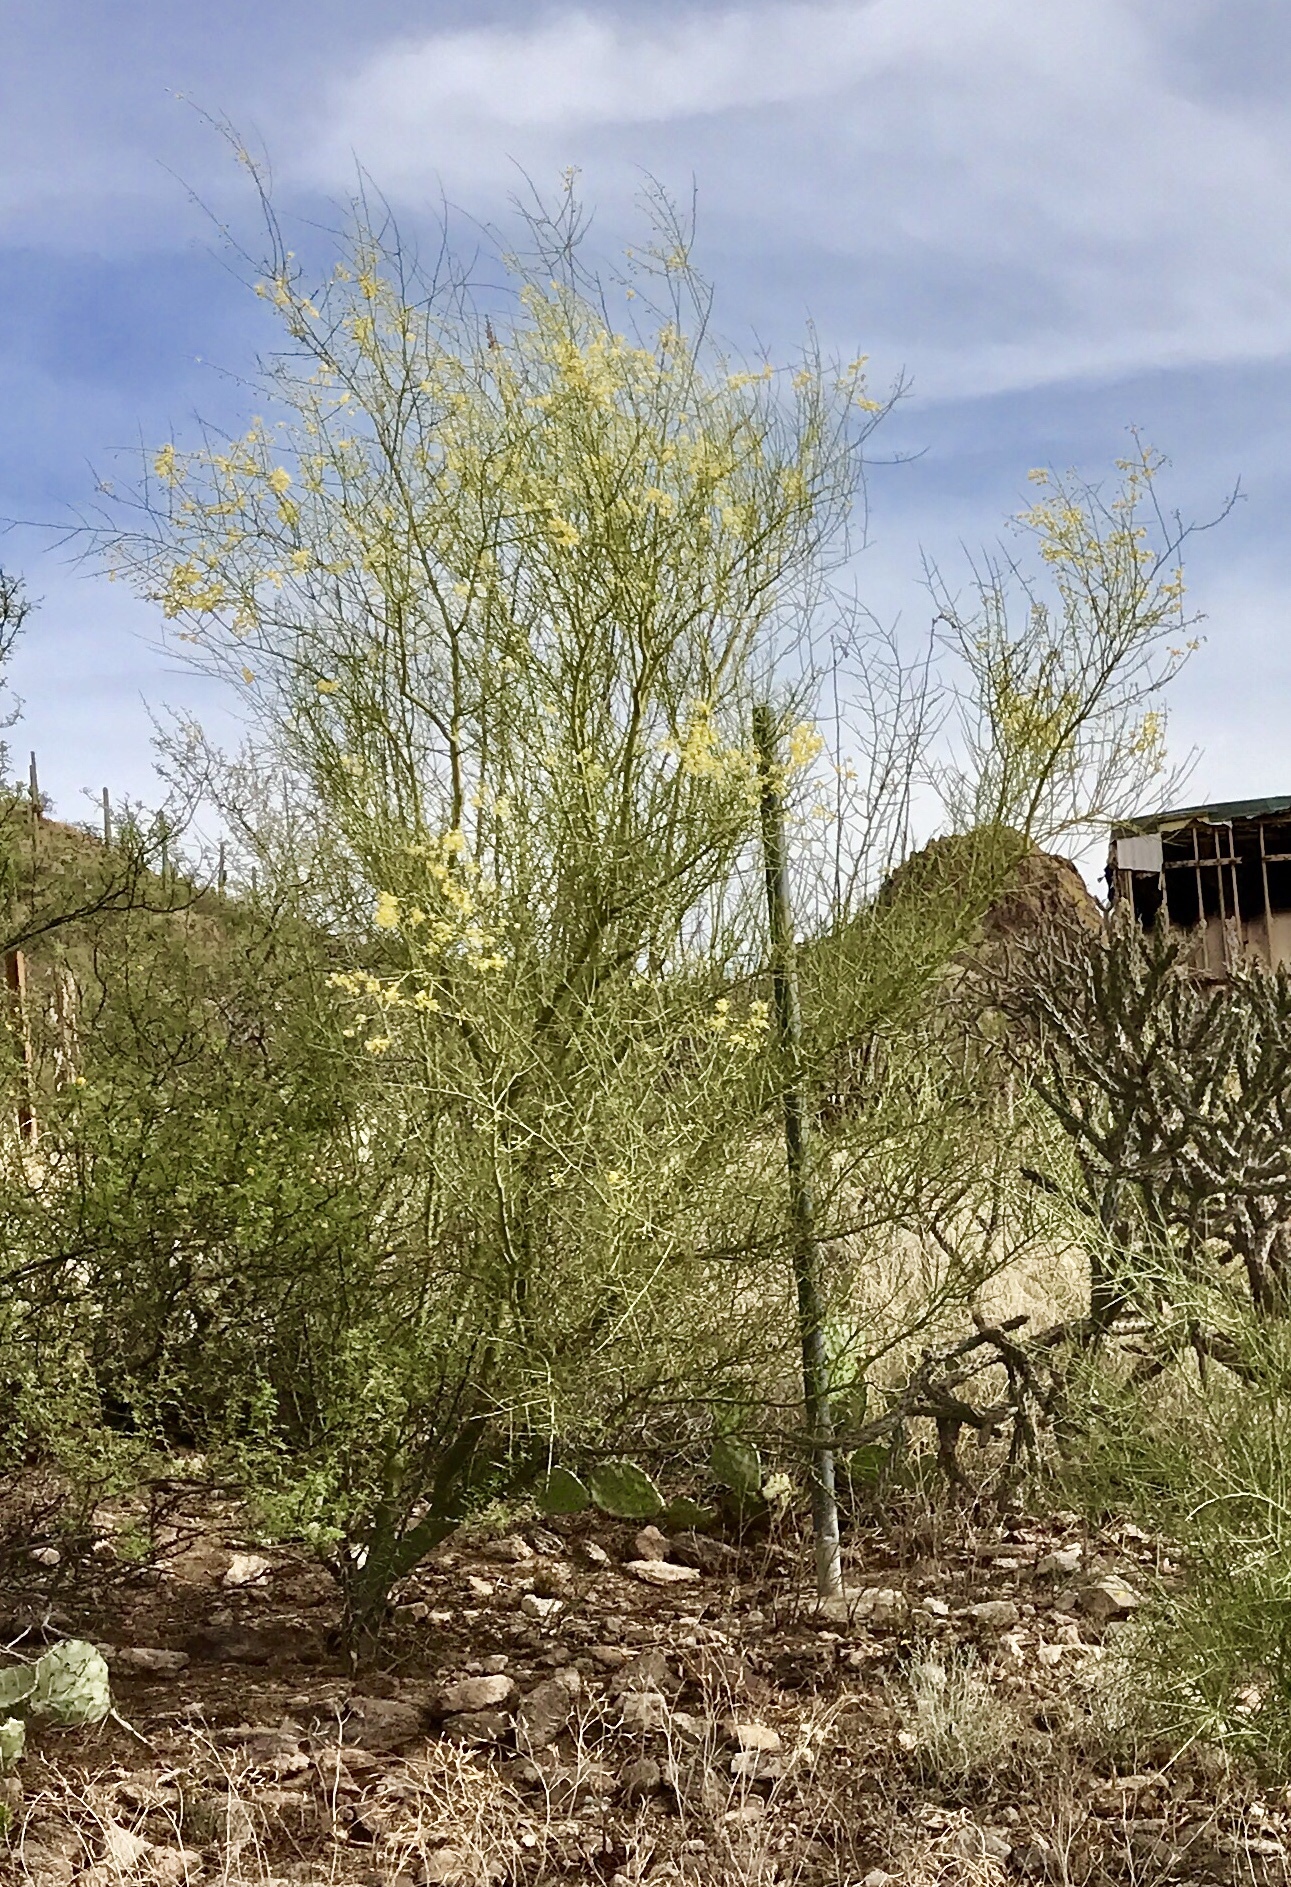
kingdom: Plantae
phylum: Tracheophyta
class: Magnoliopsida
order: Fabales
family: Fabaceae
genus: Parkinsonia
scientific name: Parkinsonia microphylla
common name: Yellow paloverde
